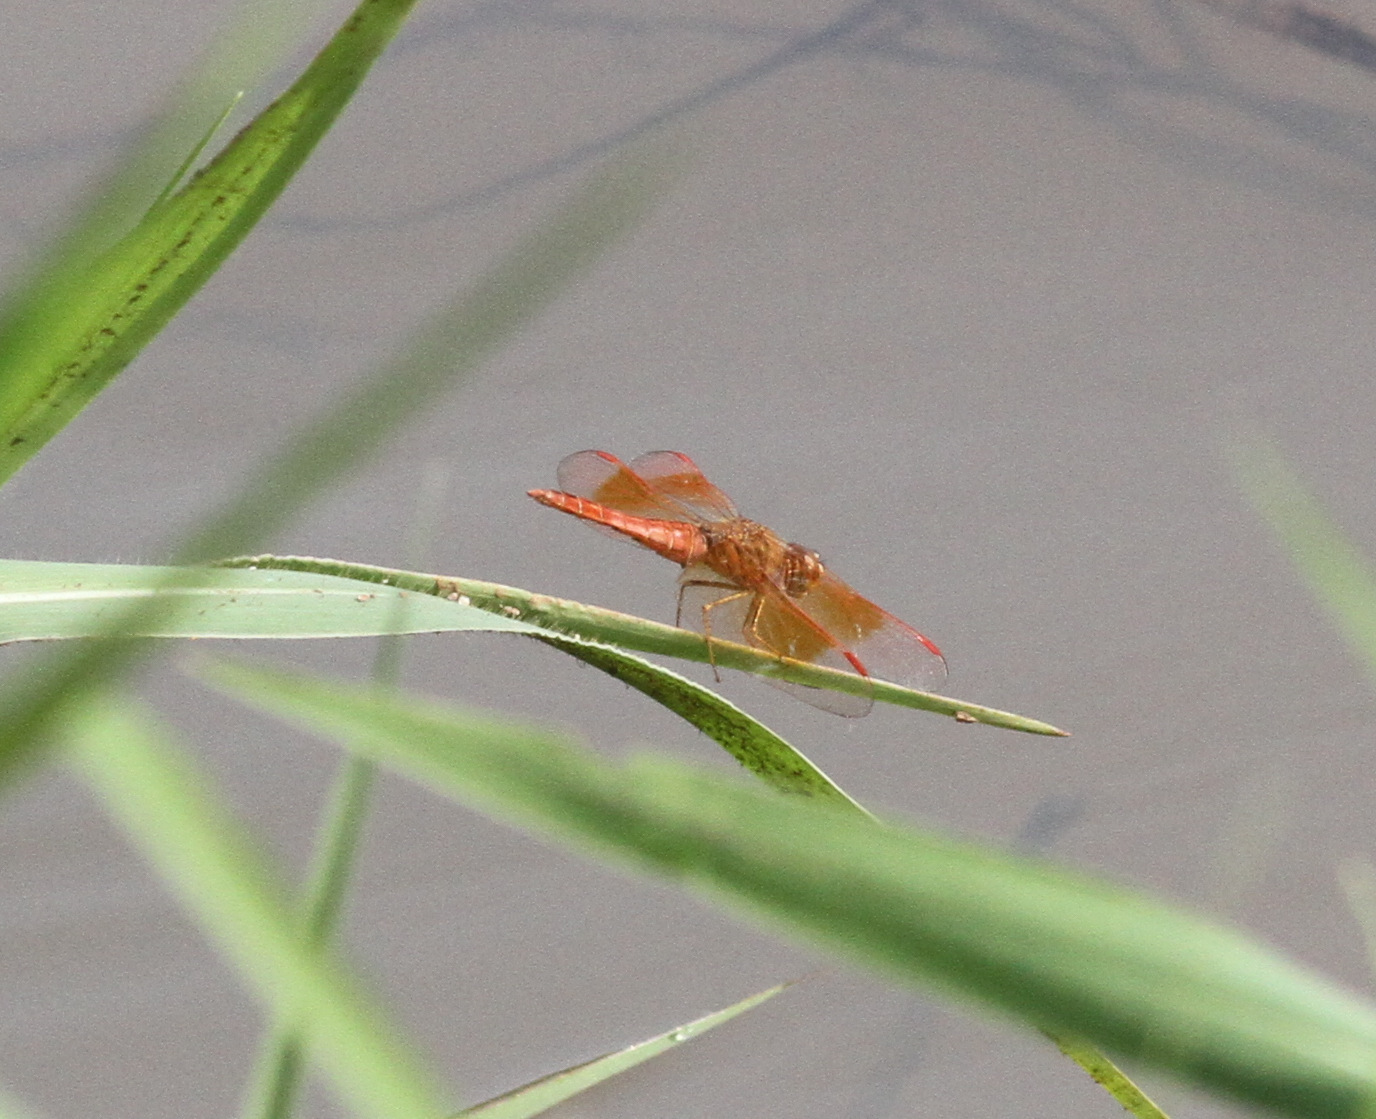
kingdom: Animalia
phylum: Arthropoda
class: Insecta
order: Odonata
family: Libellulidae
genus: Brachythemis
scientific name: Brachythemis contaminata
